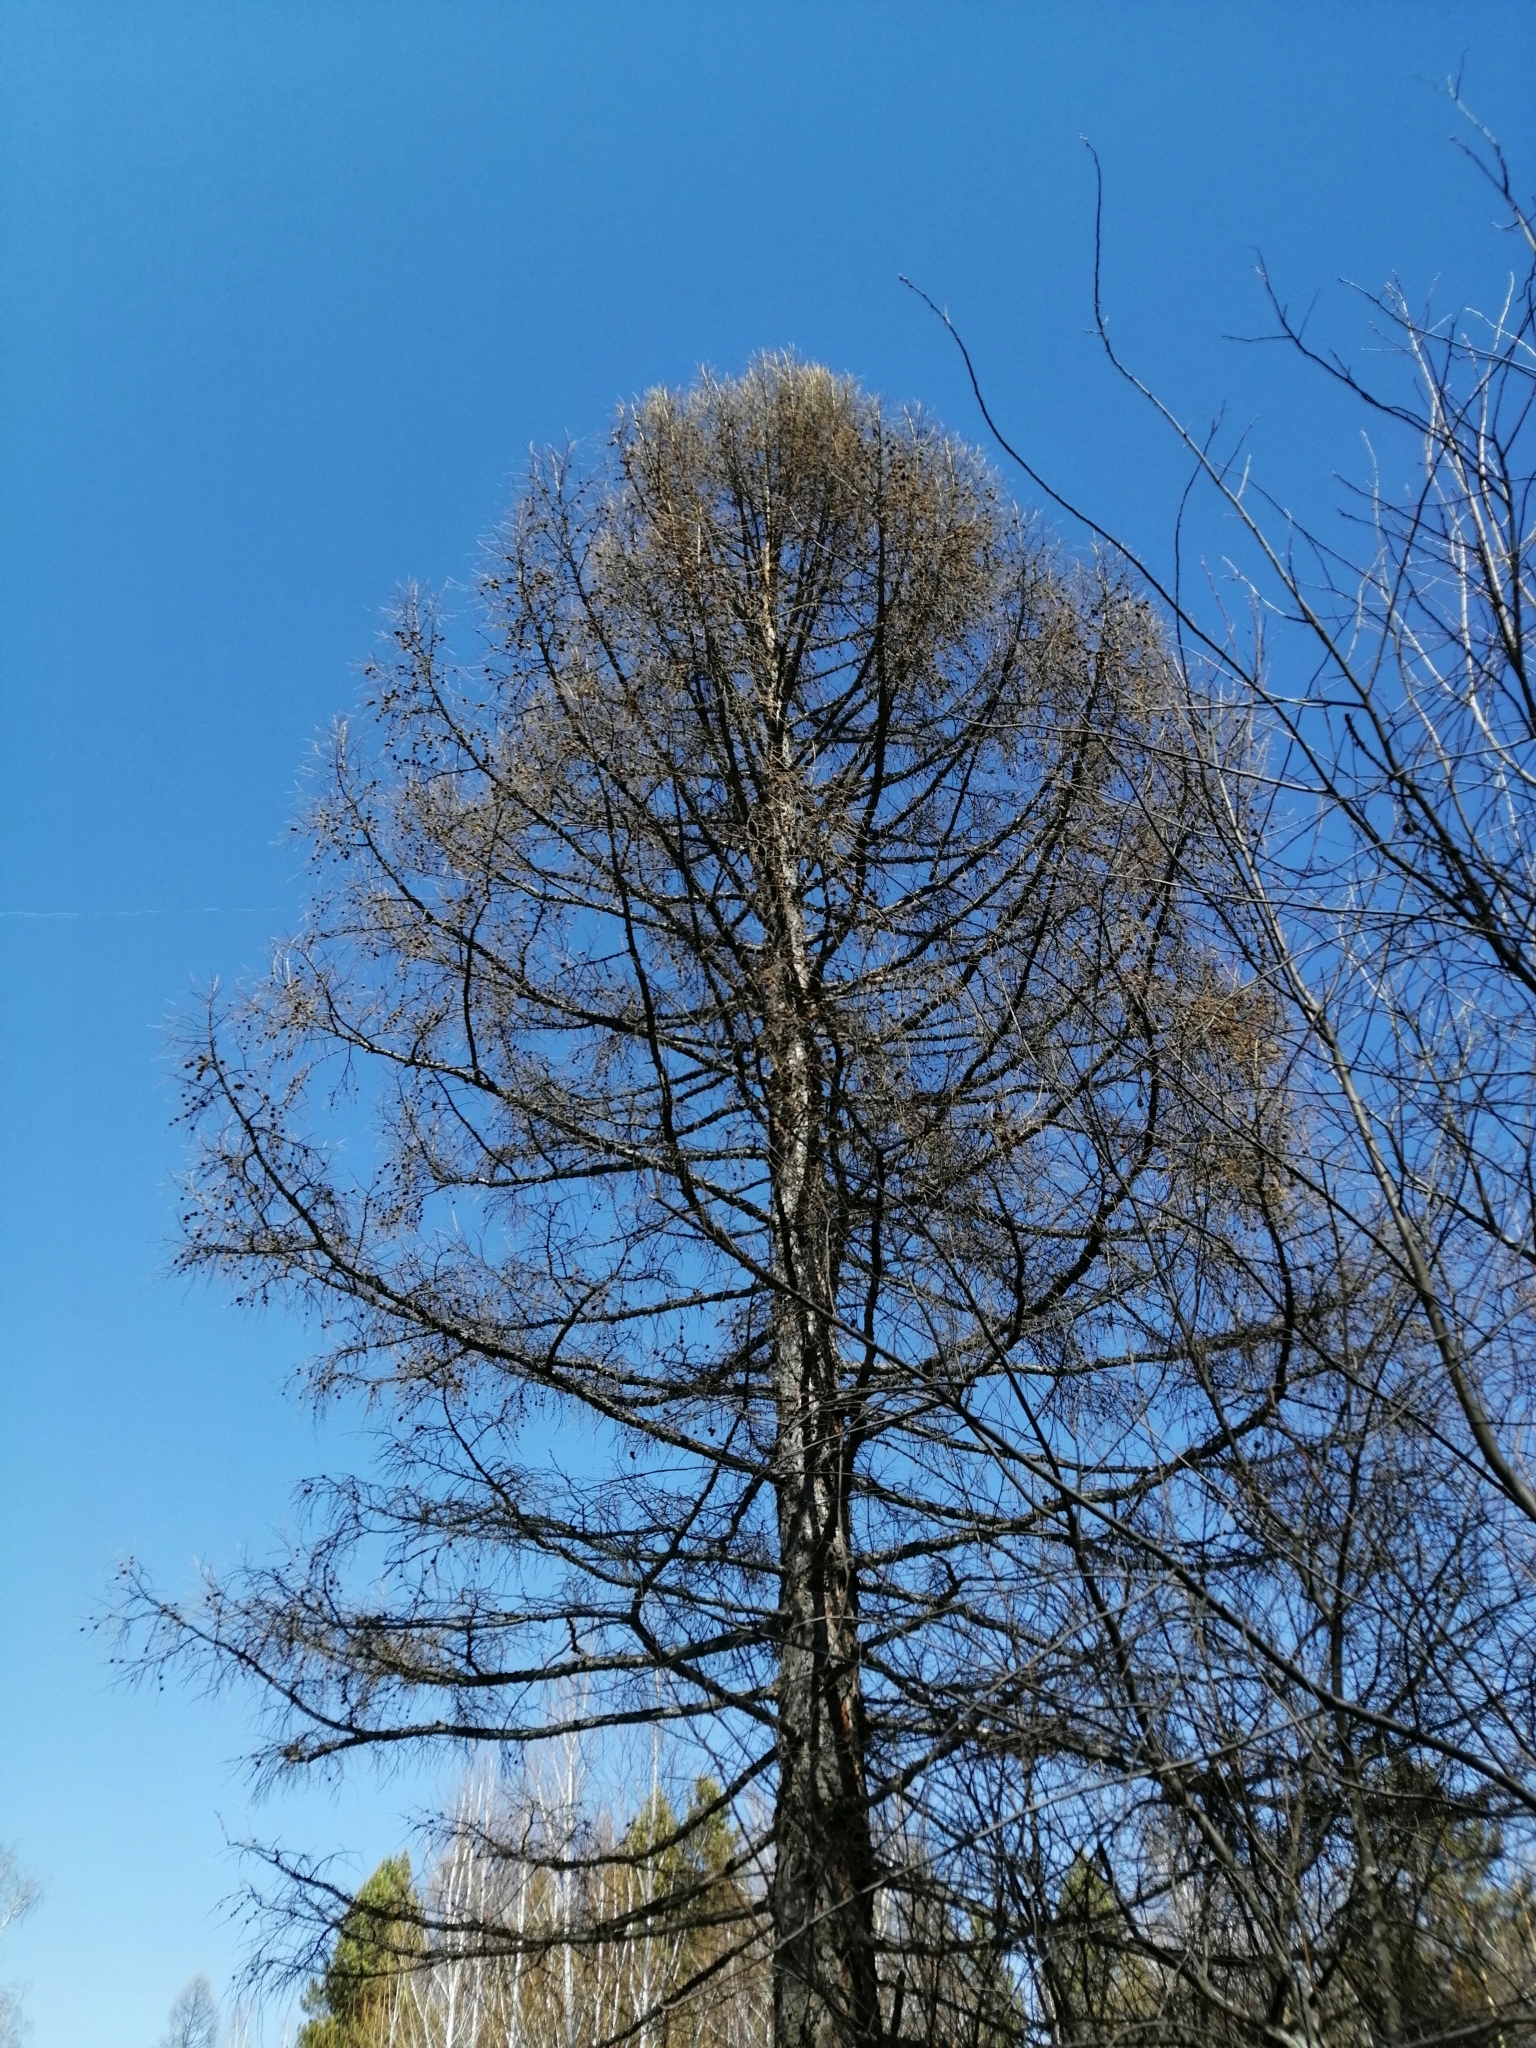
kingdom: Plantae
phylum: Tracheophyta
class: Pinopsida
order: Pinales
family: Pinaceae
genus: Larix
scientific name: Larix sibirica
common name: Siberian larch
